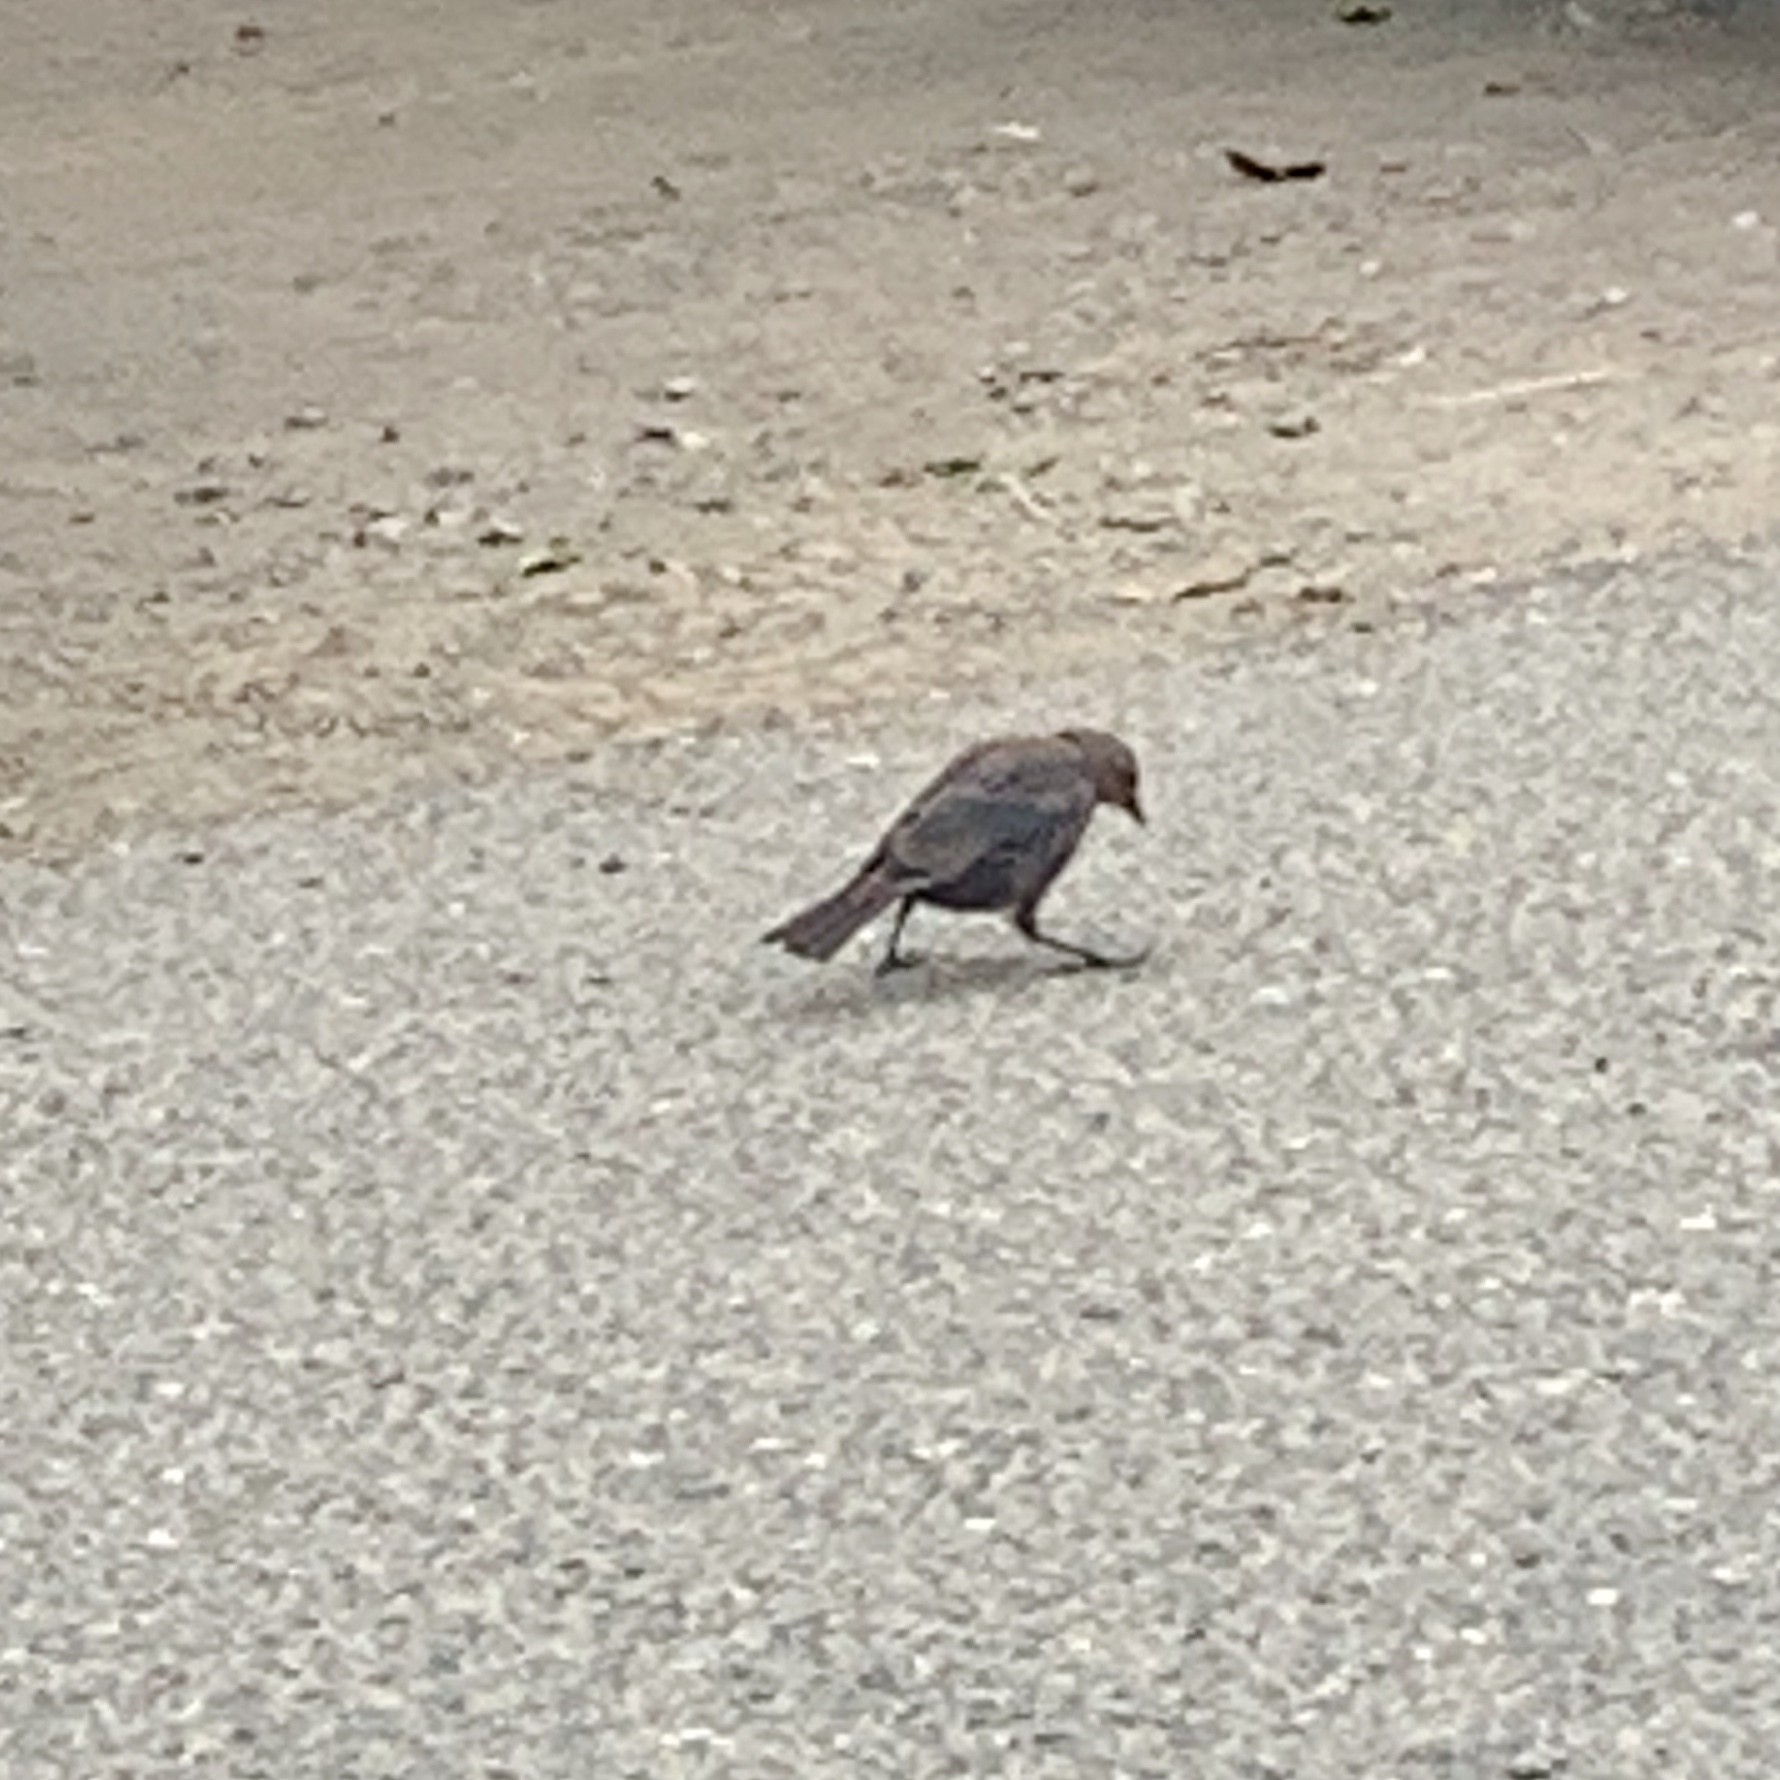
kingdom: Animalia
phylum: Chordata
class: Aves
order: Passeriformes
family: Icteridae
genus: Euphagus
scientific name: Euphagus cyanocephalus
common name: Brewer's blackbird
